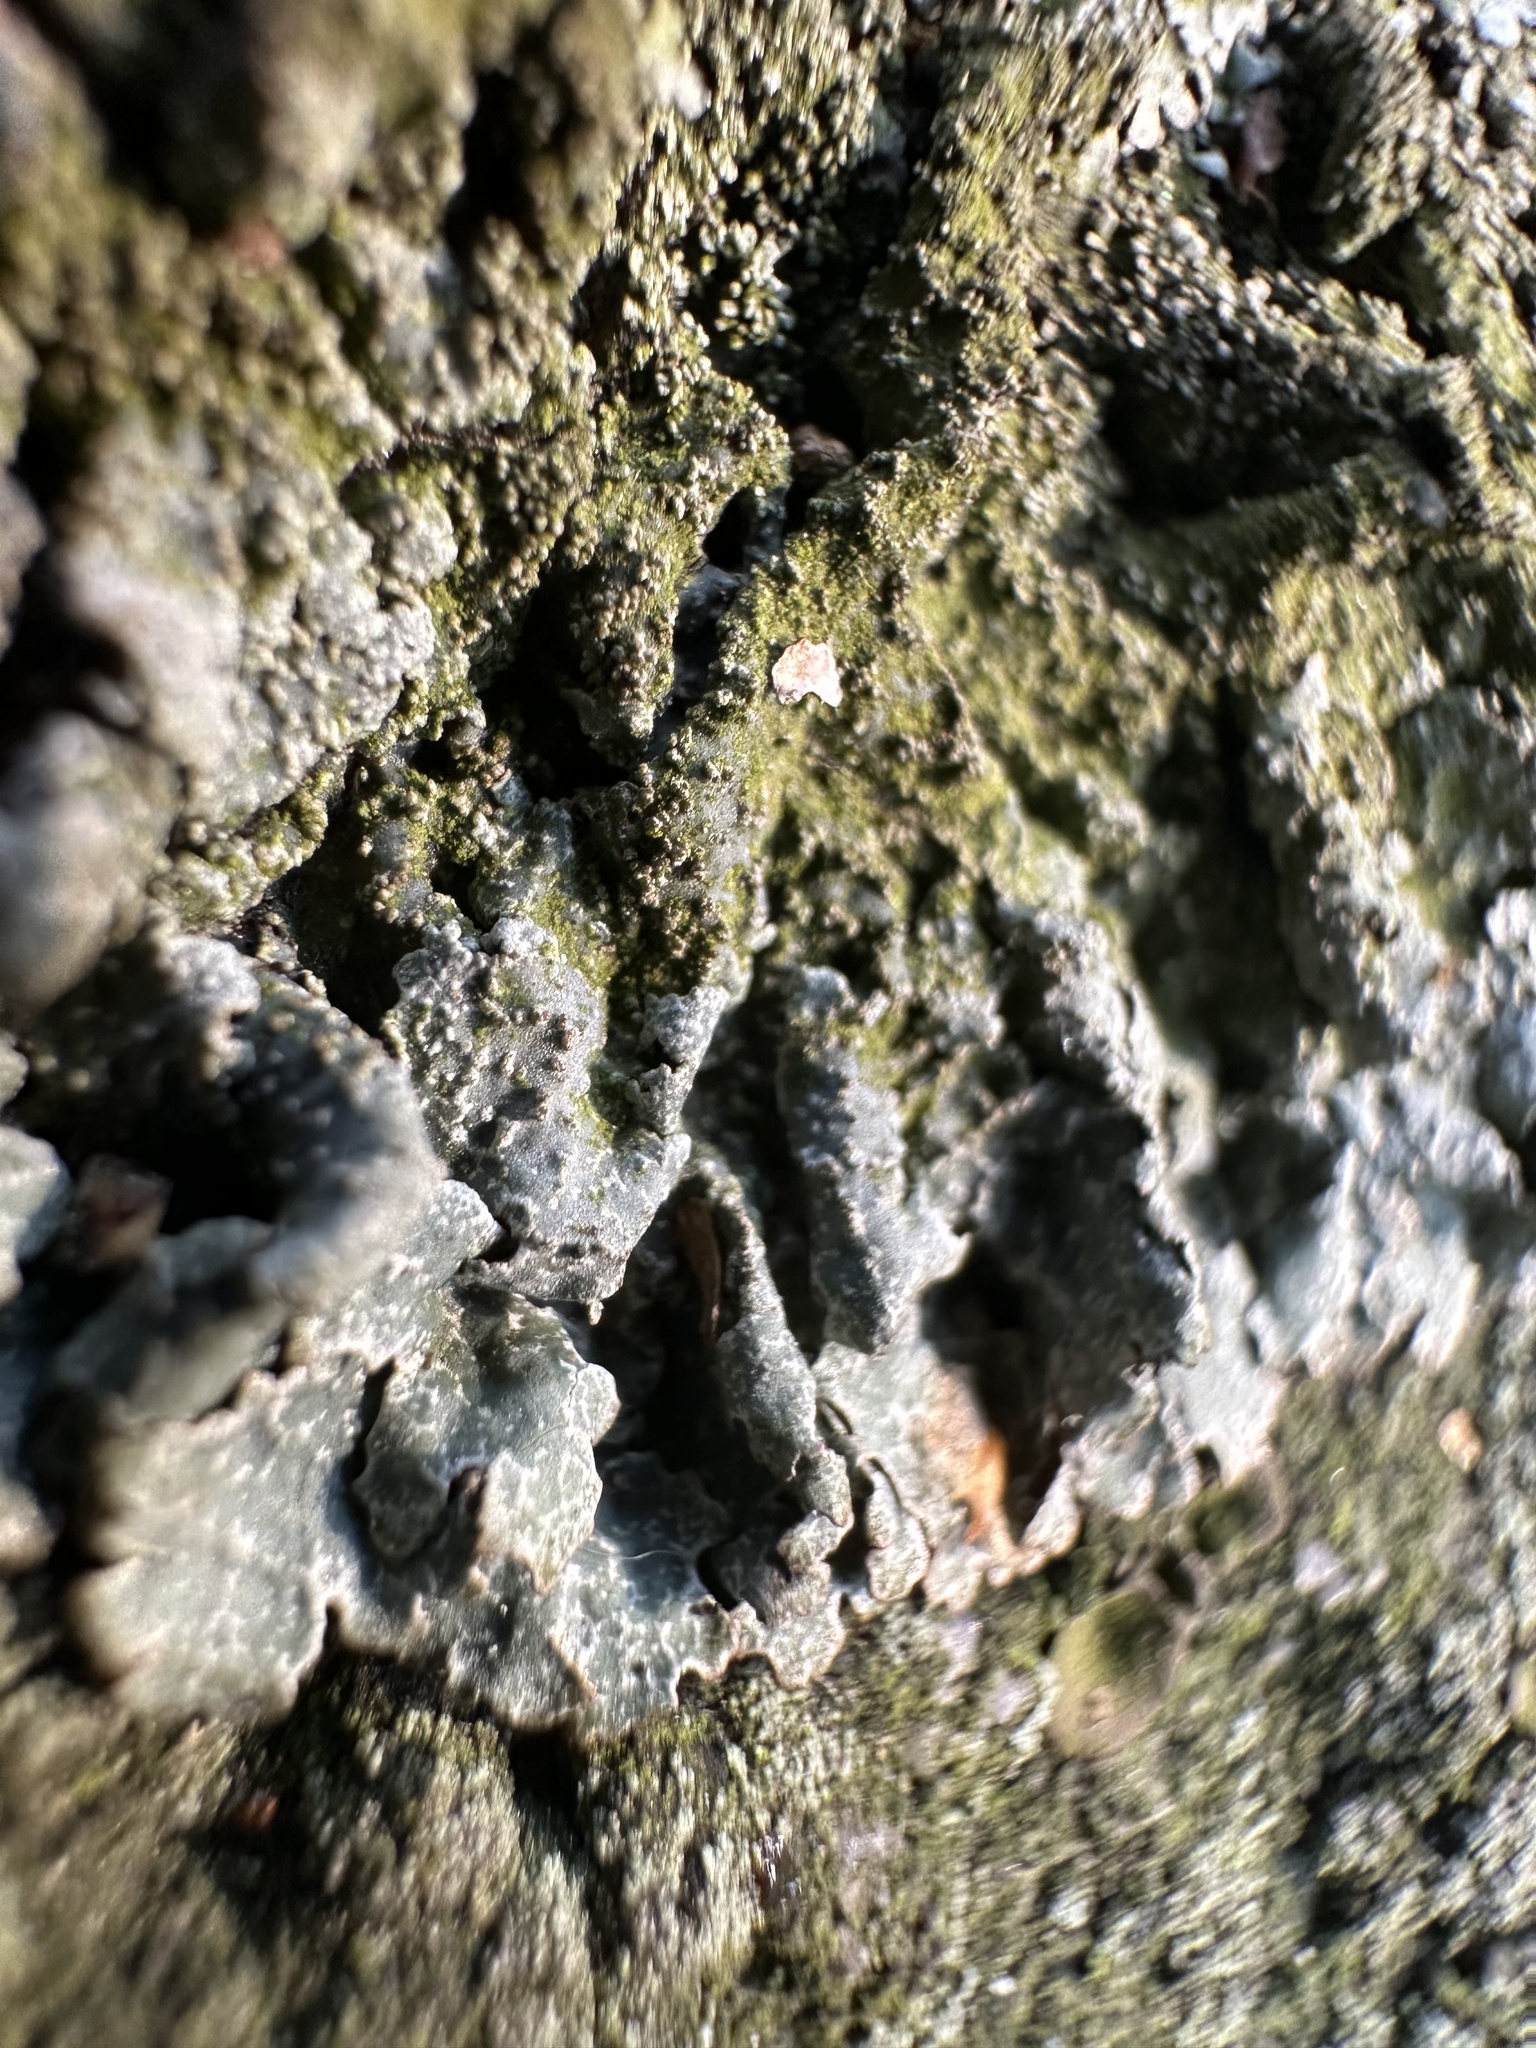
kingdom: Fungi
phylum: Ascomycota
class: Lecanoromycetes
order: Lecanorales
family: Parmeliaceae
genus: Parmelia
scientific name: Parmelia saxatilis
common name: Salted shield lichen
